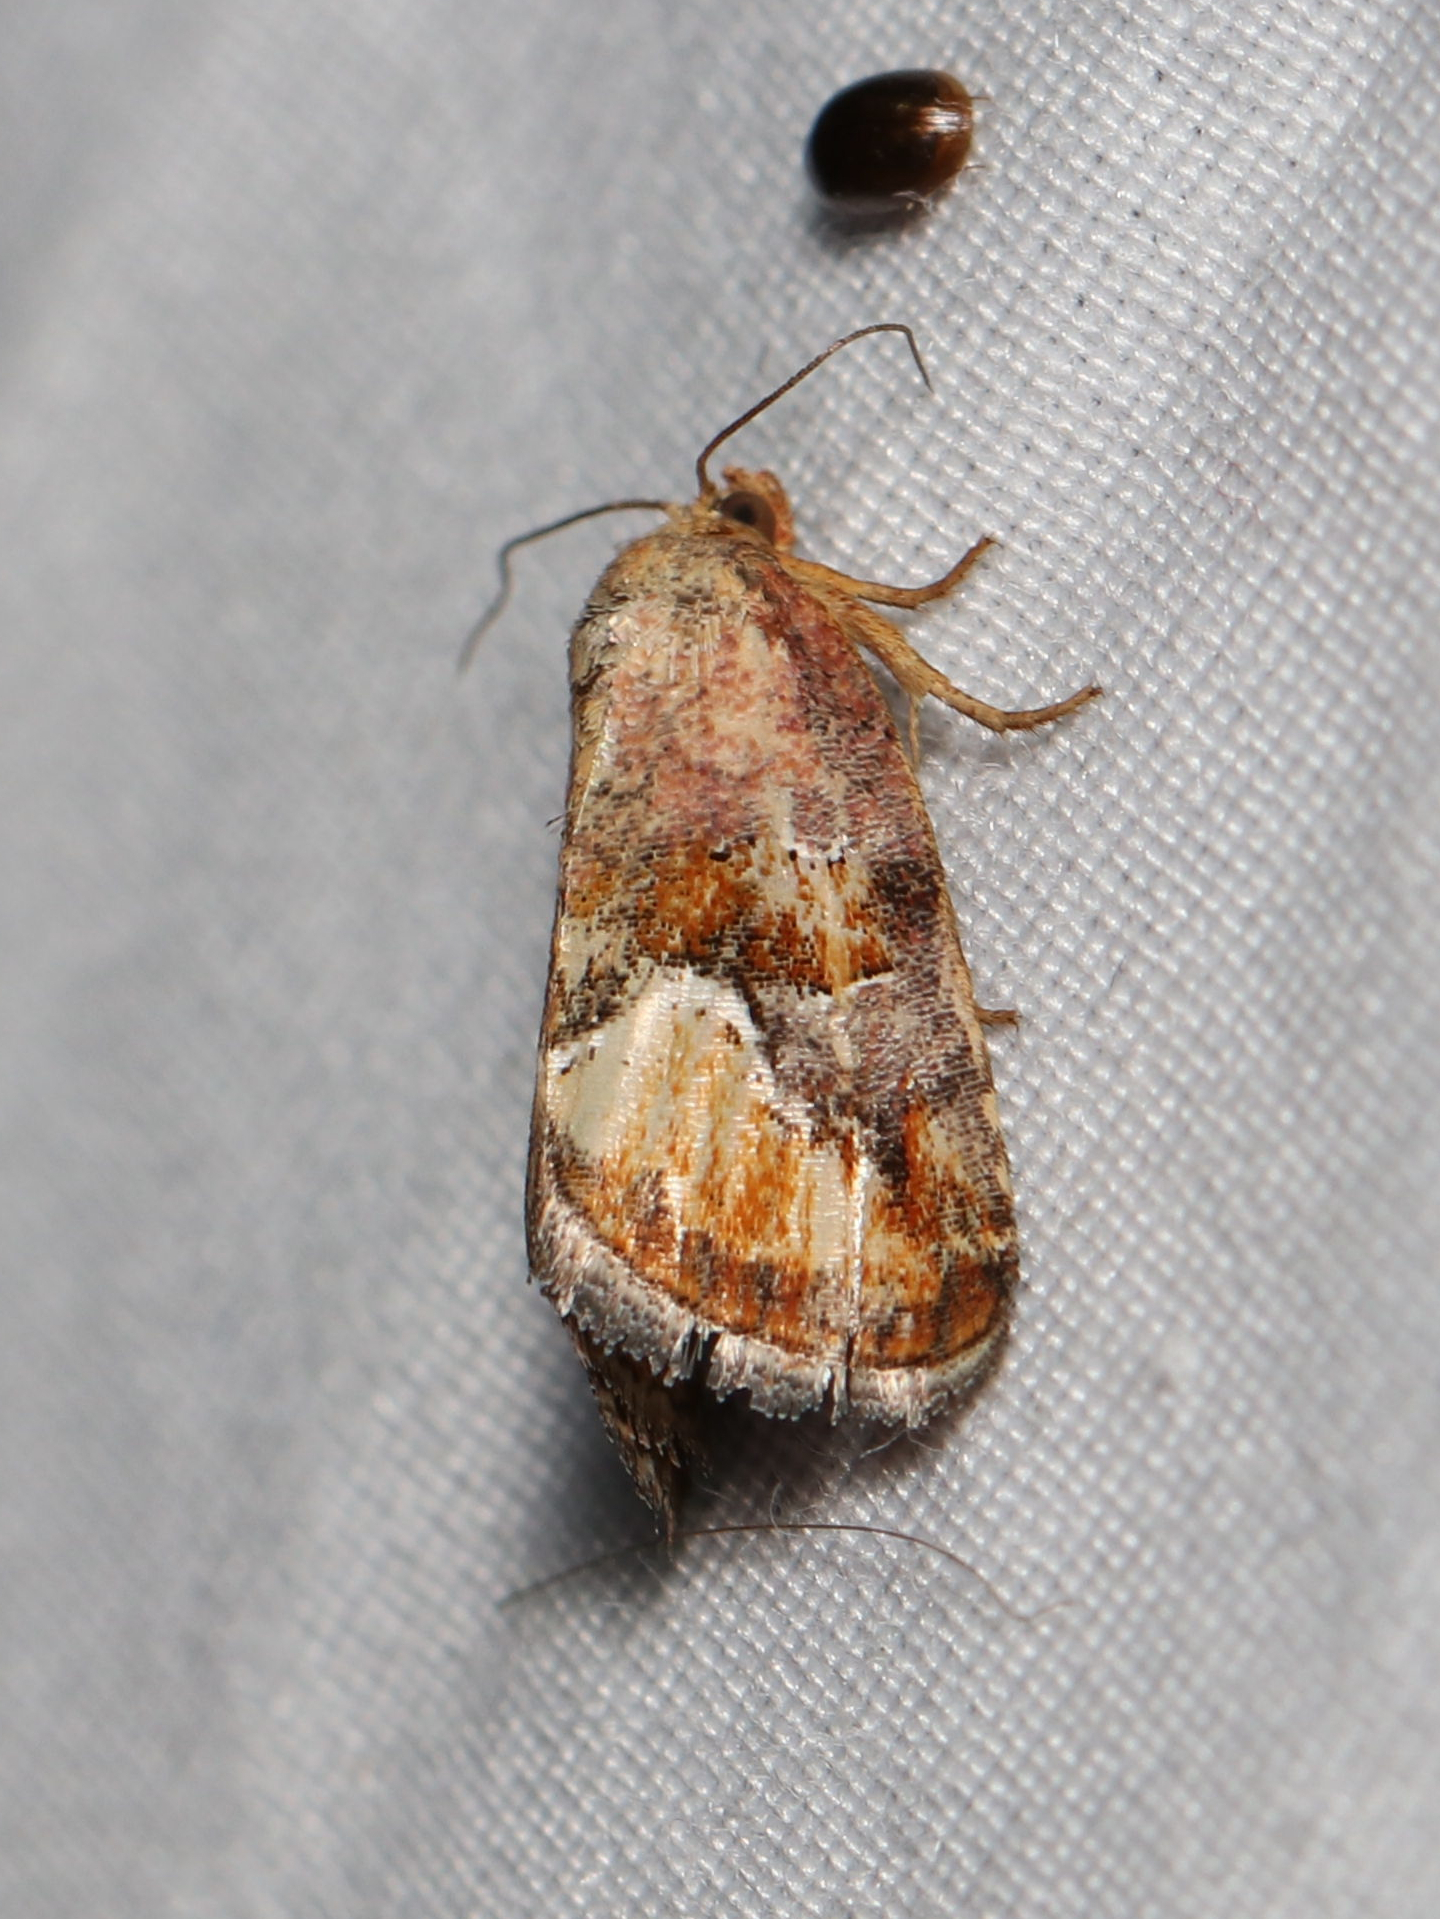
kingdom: Animalia
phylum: Arthropoda
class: Insecta
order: Lepidoptera
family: Noctuidae
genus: Deltote
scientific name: Deltote bellicula
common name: Bog glyph
